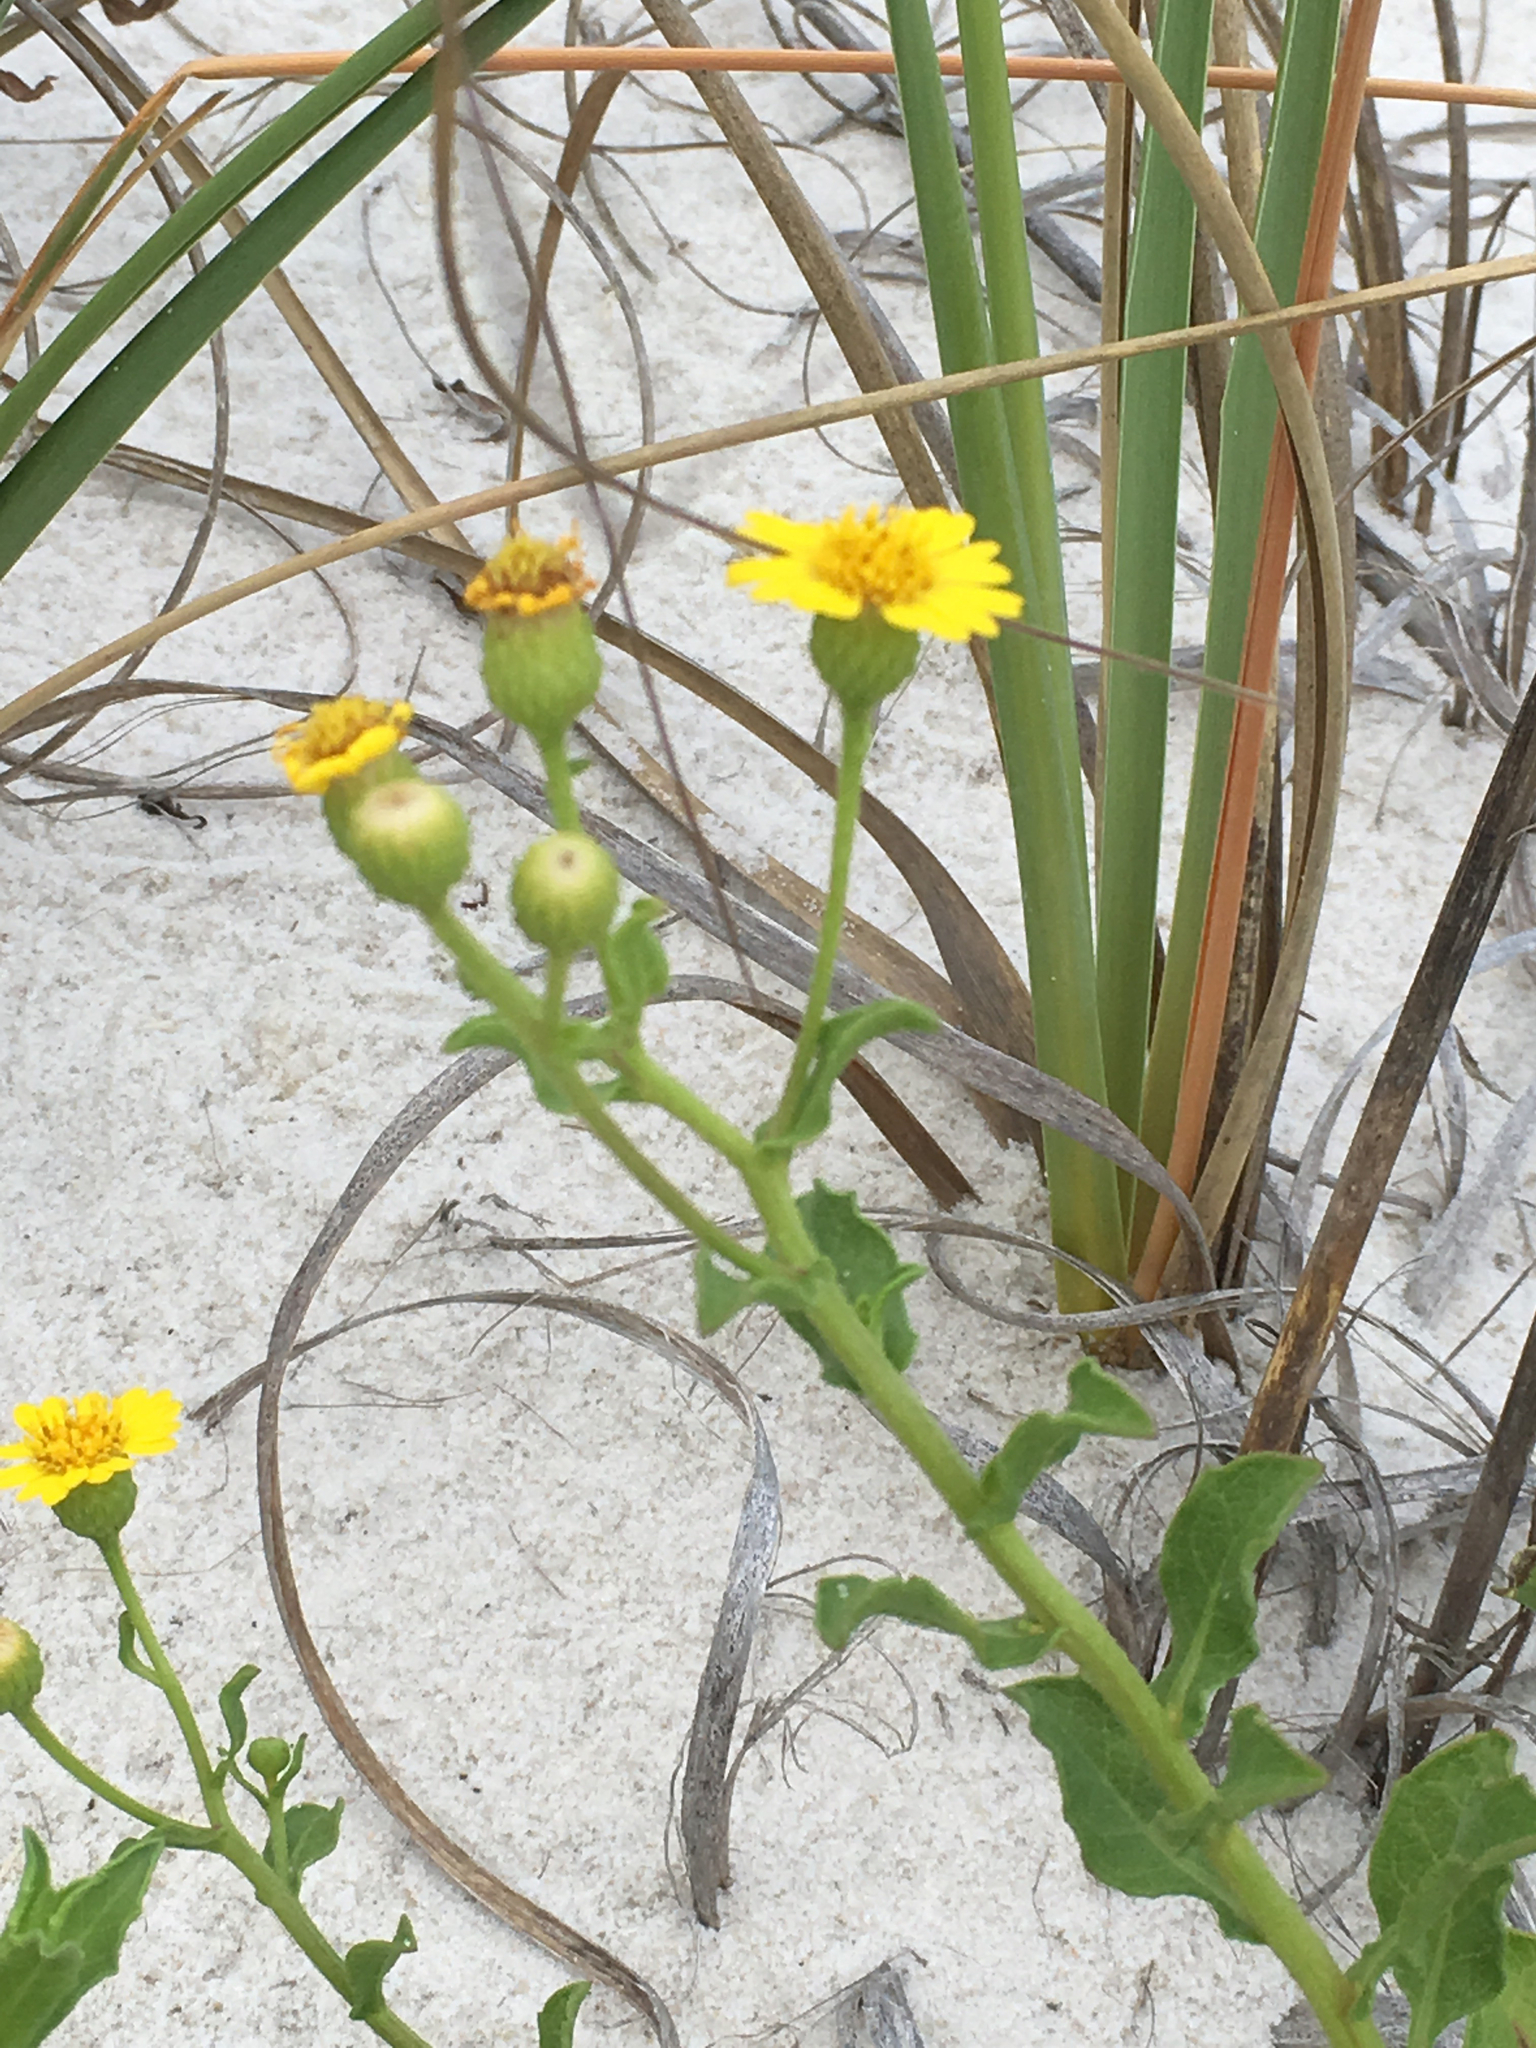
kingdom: Plantae
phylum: Tracheophyta
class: Magnoliopsida
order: Asterales
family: Asteraceae
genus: Heterotheca
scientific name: Heterotheca subaxillaris
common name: Camphorweed
